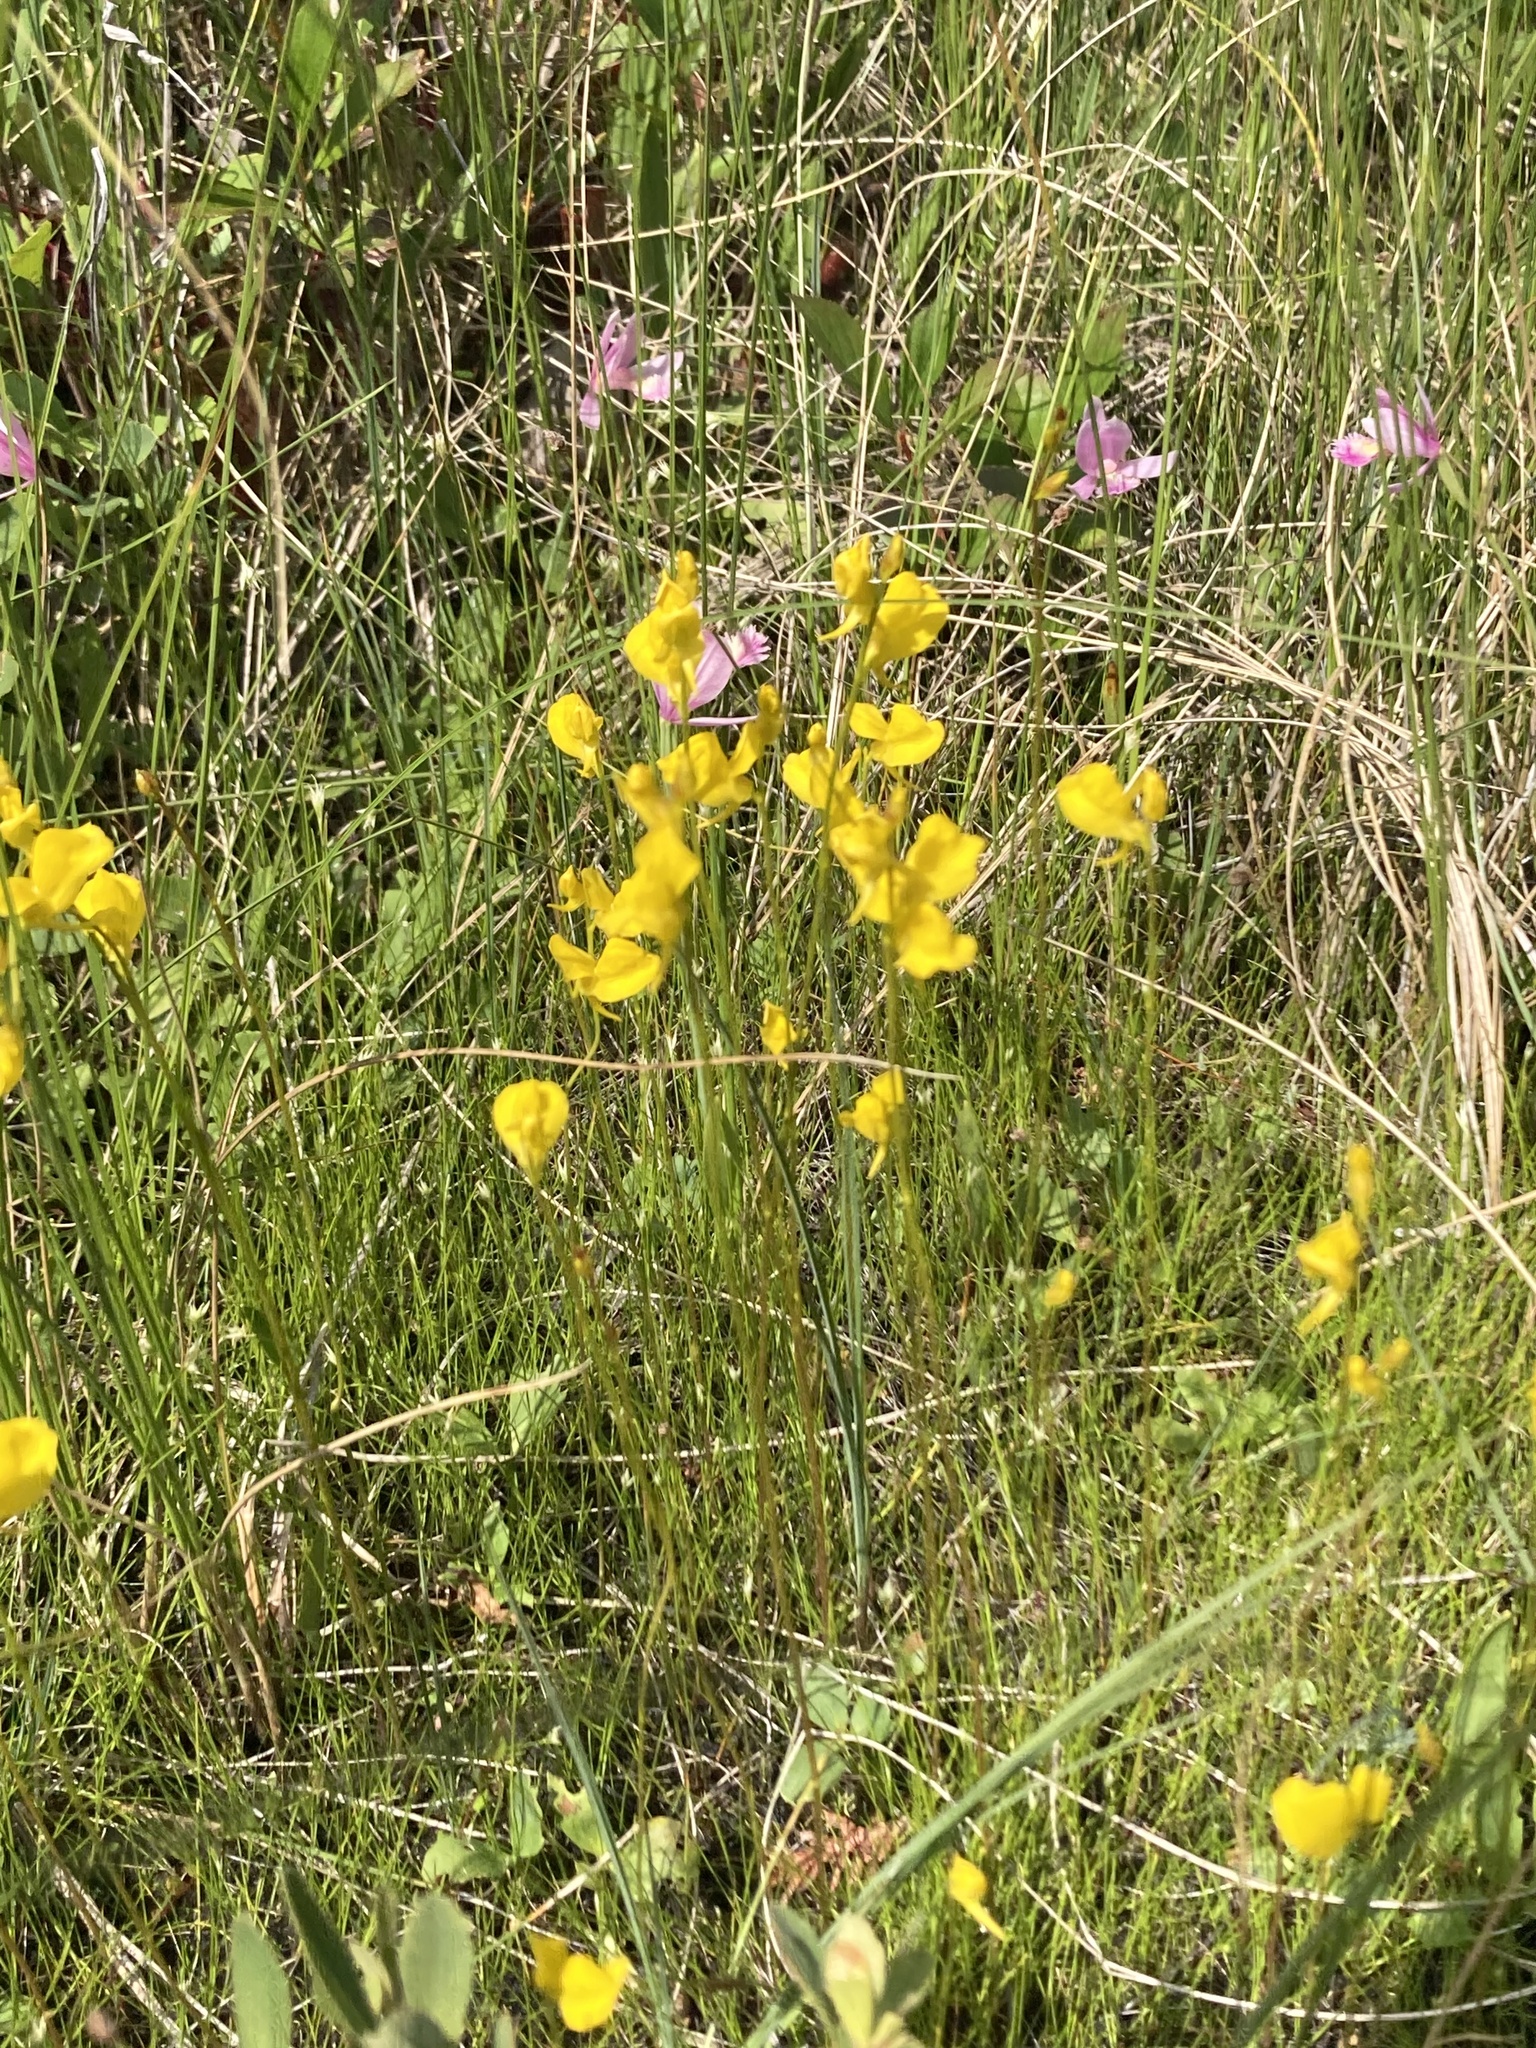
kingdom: Plantae
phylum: Tracheophyta
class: Magnoliopsida
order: Lamiales
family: Lentibulariaceae
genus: Utricularia
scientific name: Utricularia cornuta
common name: Horned bladderwort
